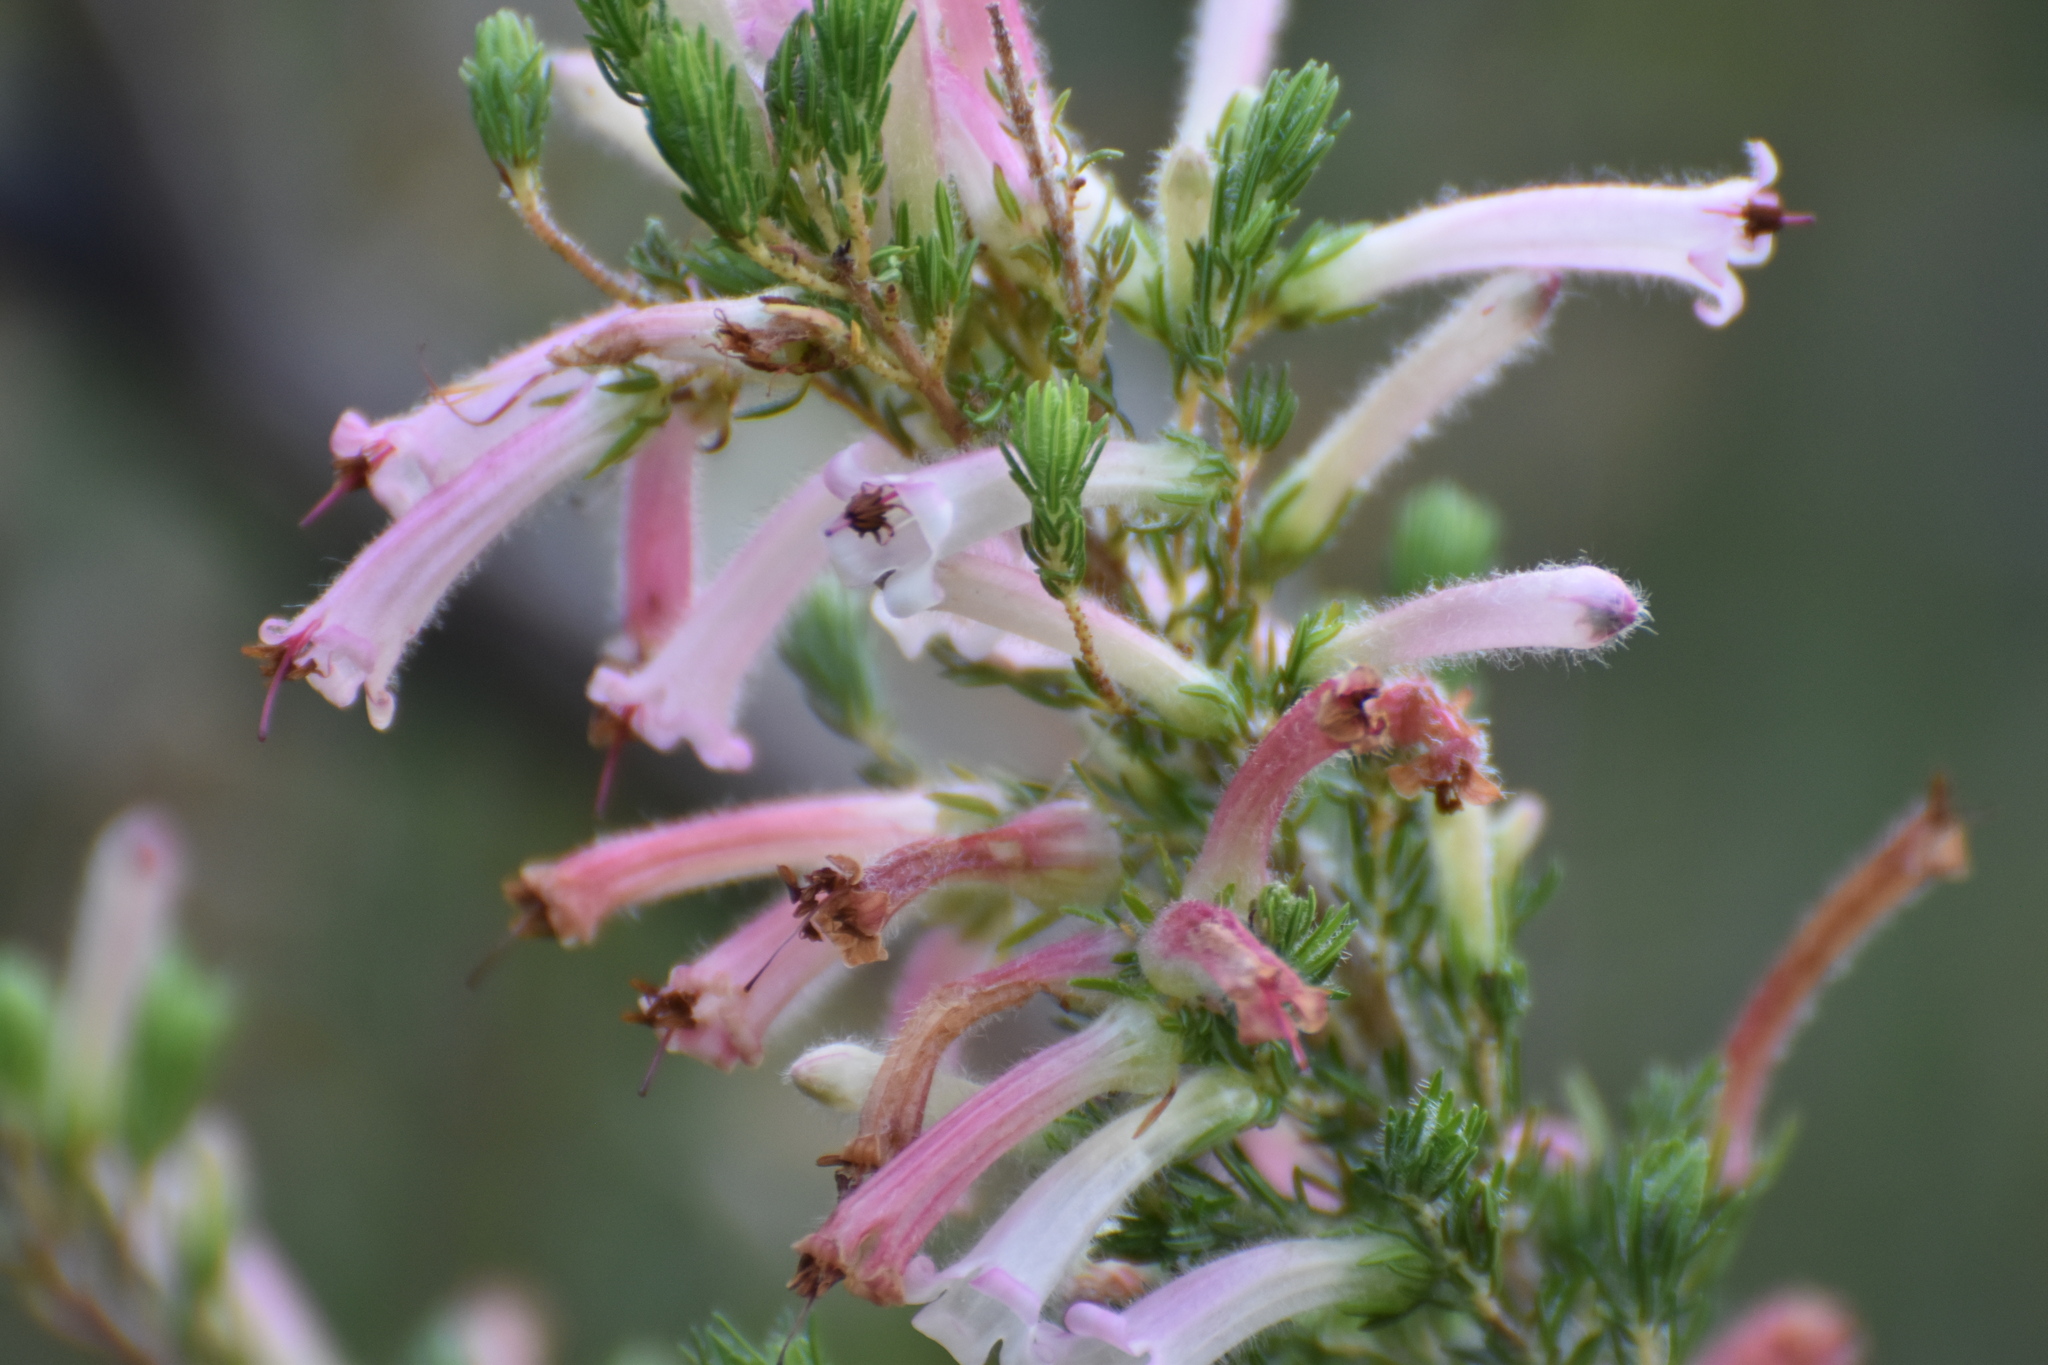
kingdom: Plantae
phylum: Tracheophyta
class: Magnoliopsida
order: Ericales
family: Ericaceae
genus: Erica
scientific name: Erica curviflora
